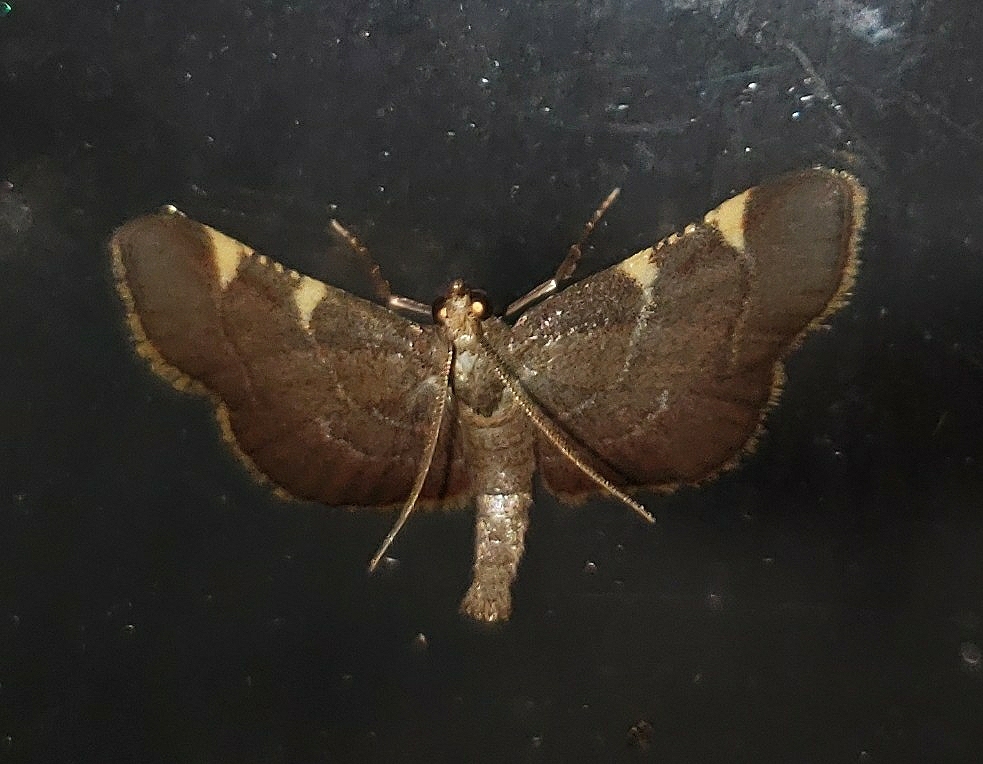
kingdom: Animalia
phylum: Arthropoda
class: Insecta
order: Lepidoptera
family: Pyralidae
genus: Hypsopygia
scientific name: Hypsopygia olinalis
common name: Yellow-fringed dolichomia moth
